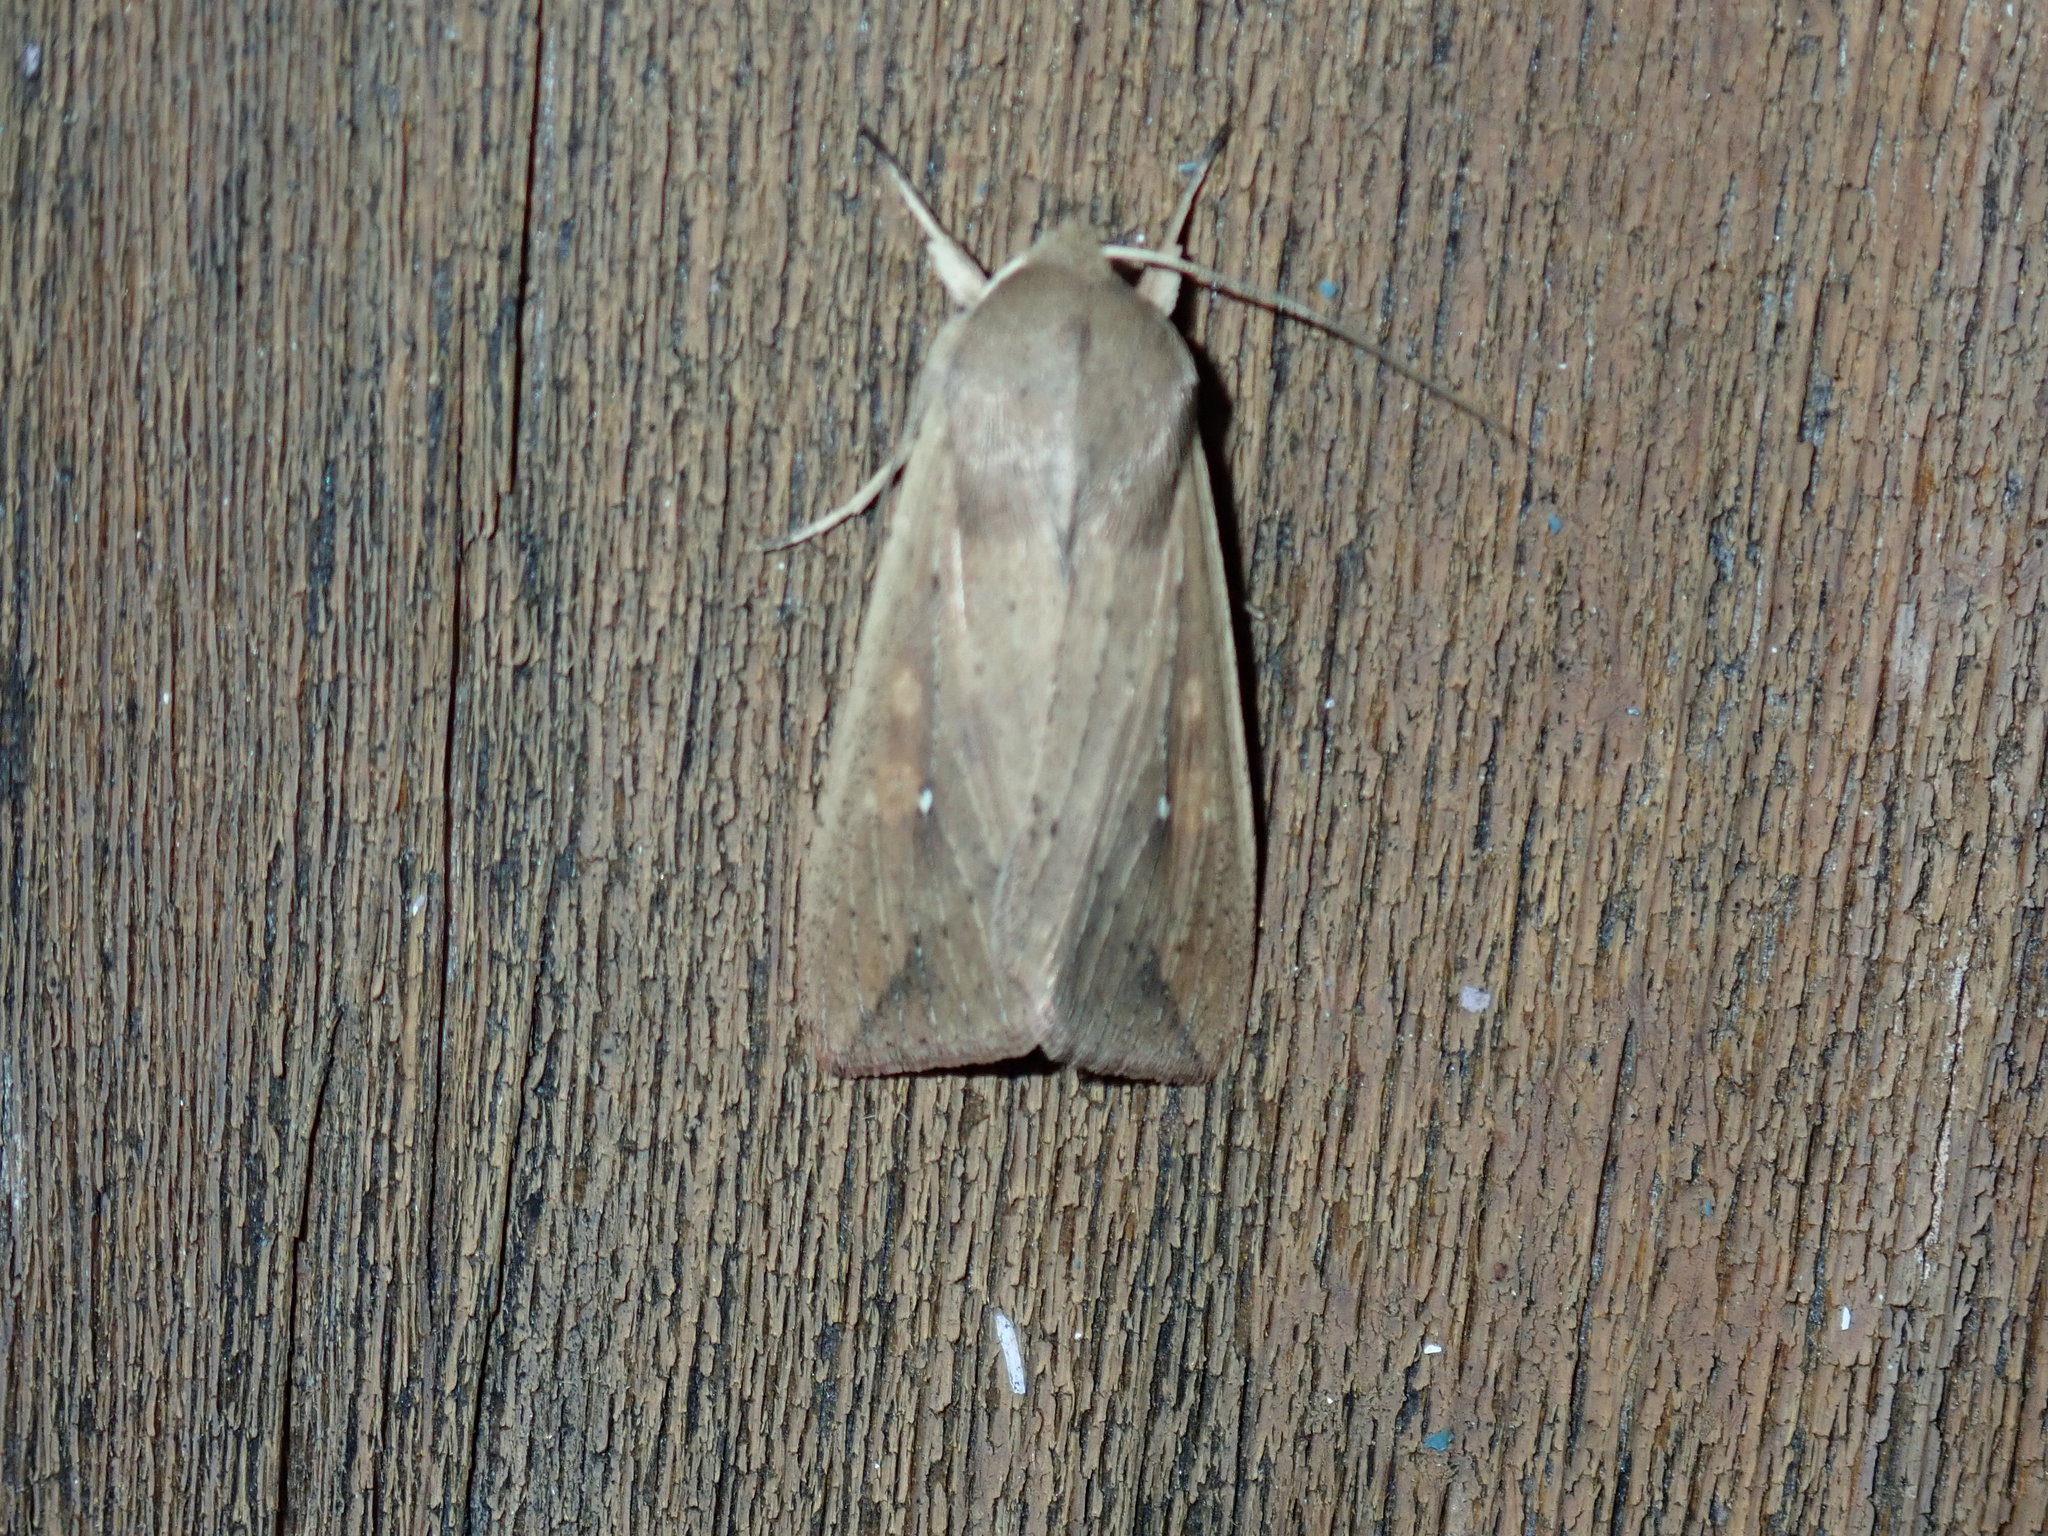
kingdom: Animalia
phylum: Arthropoda
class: Insecta
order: Lepidoptera
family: Noctuidae
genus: Mythimna
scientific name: Mythimna unipuncta
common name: White-speck
